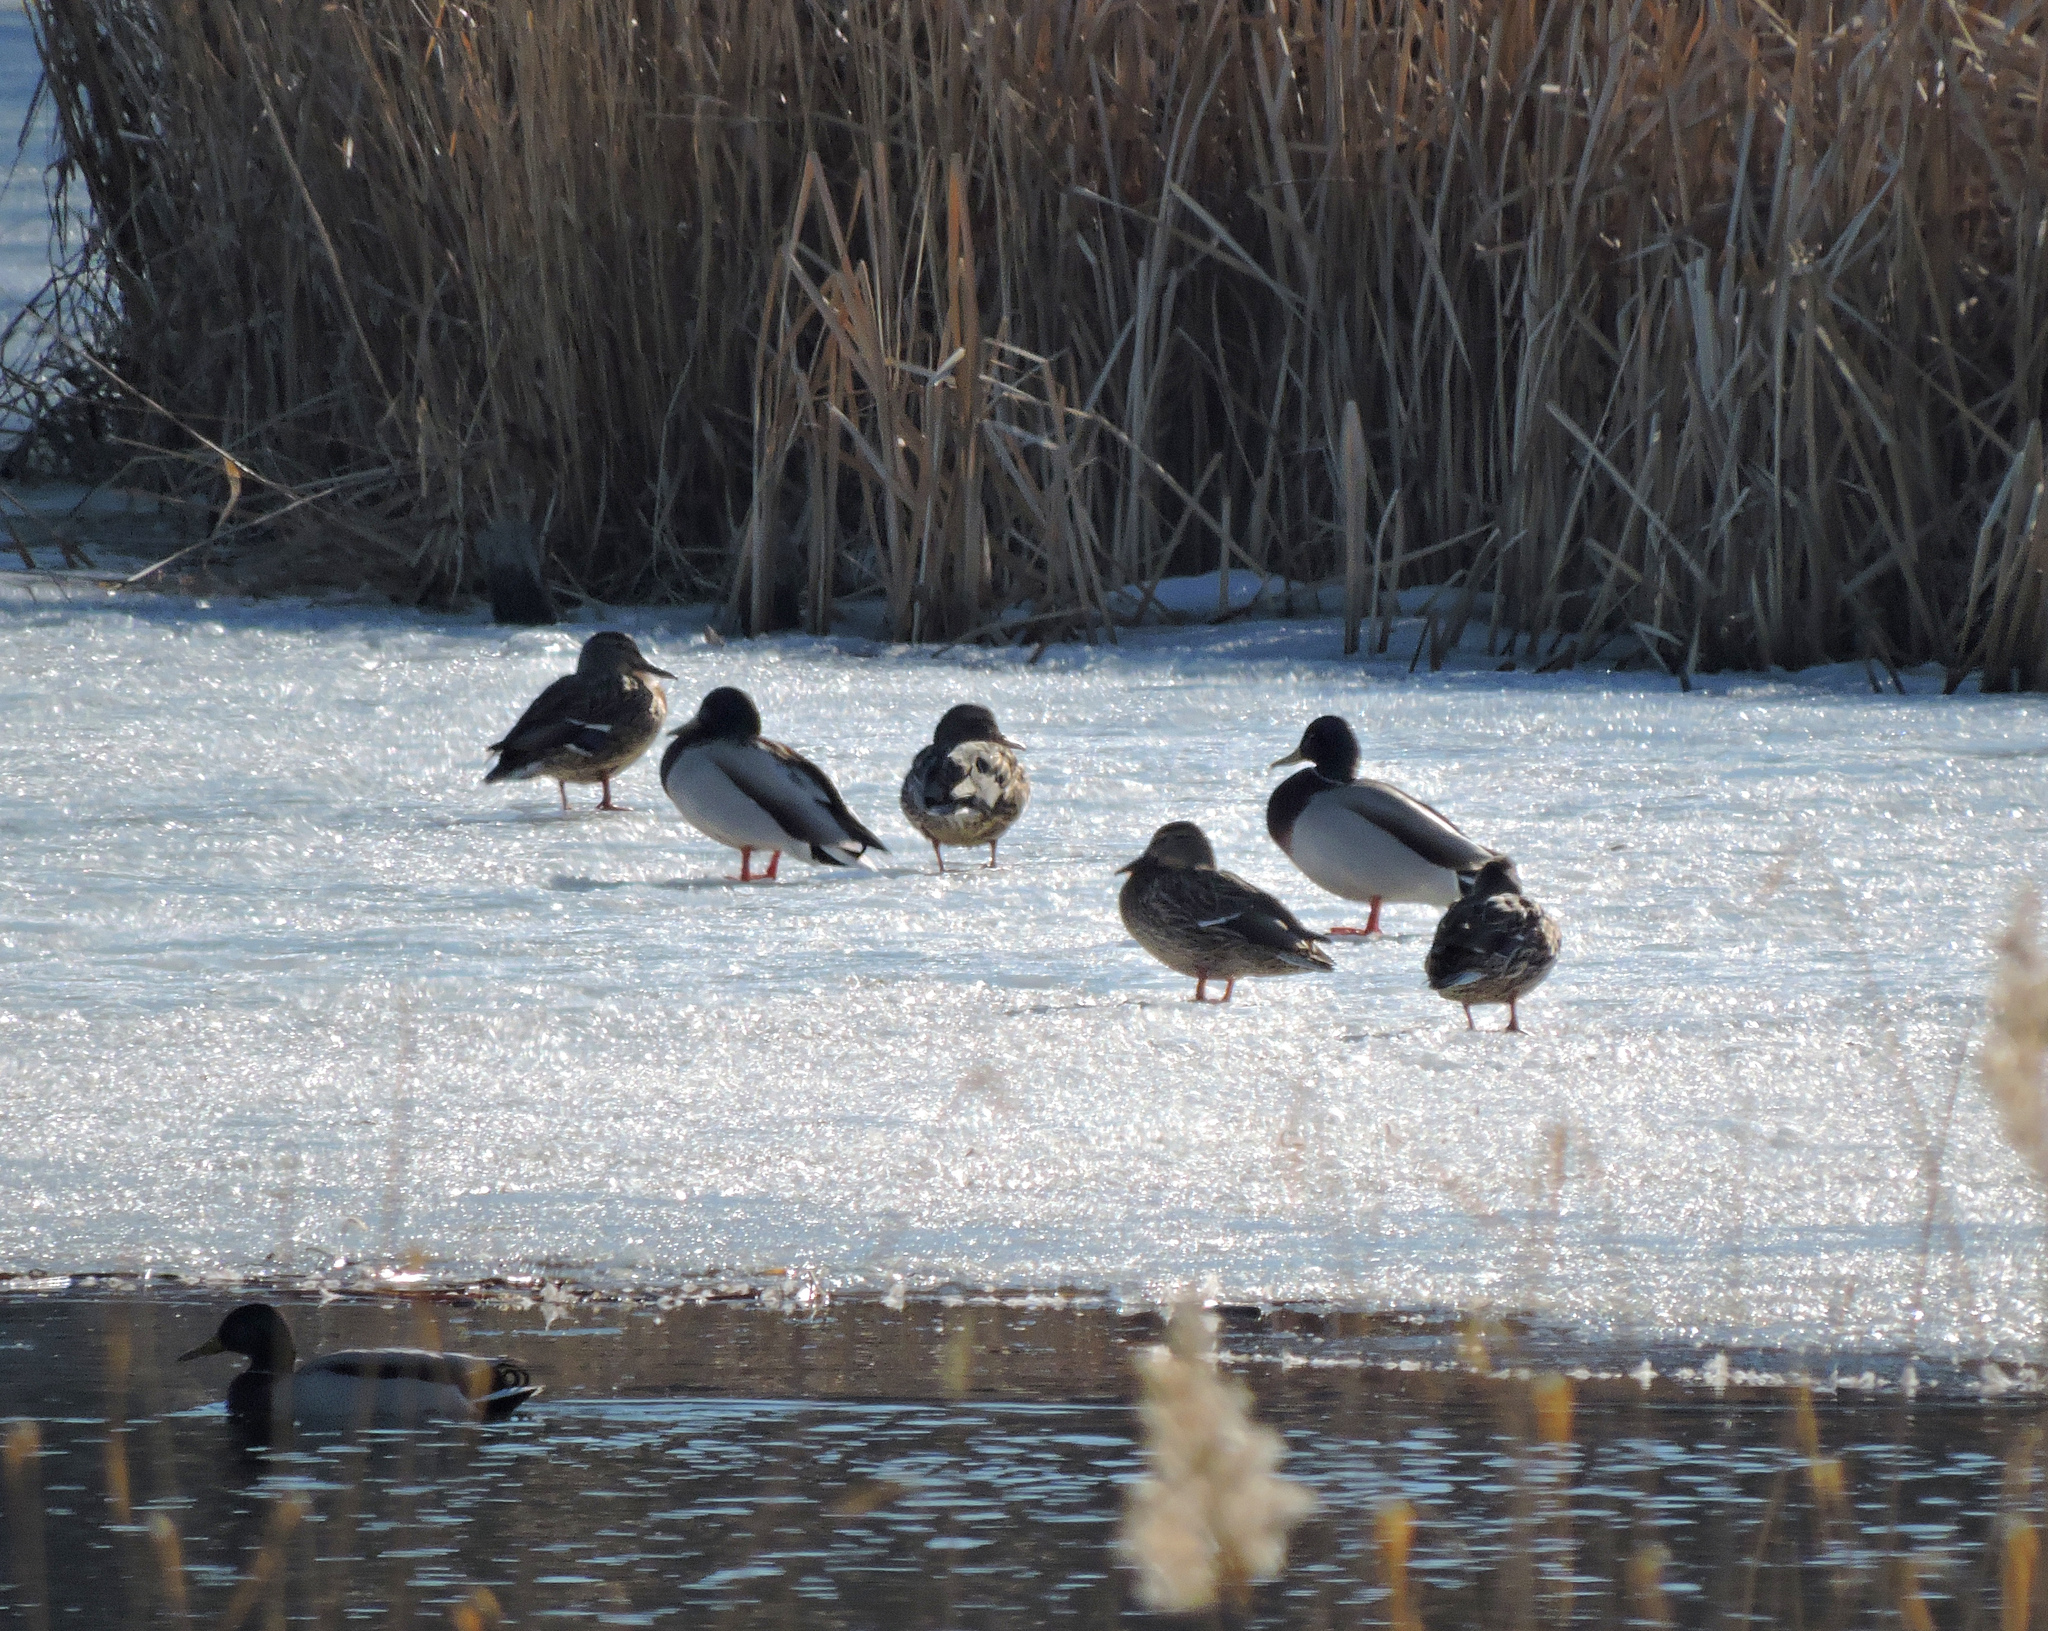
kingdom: Animalia
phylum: Chordata
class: Aves
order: Anseriformes
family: Anatidae
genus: Anas
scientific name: Anas platyrhynchos
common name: Mallard
